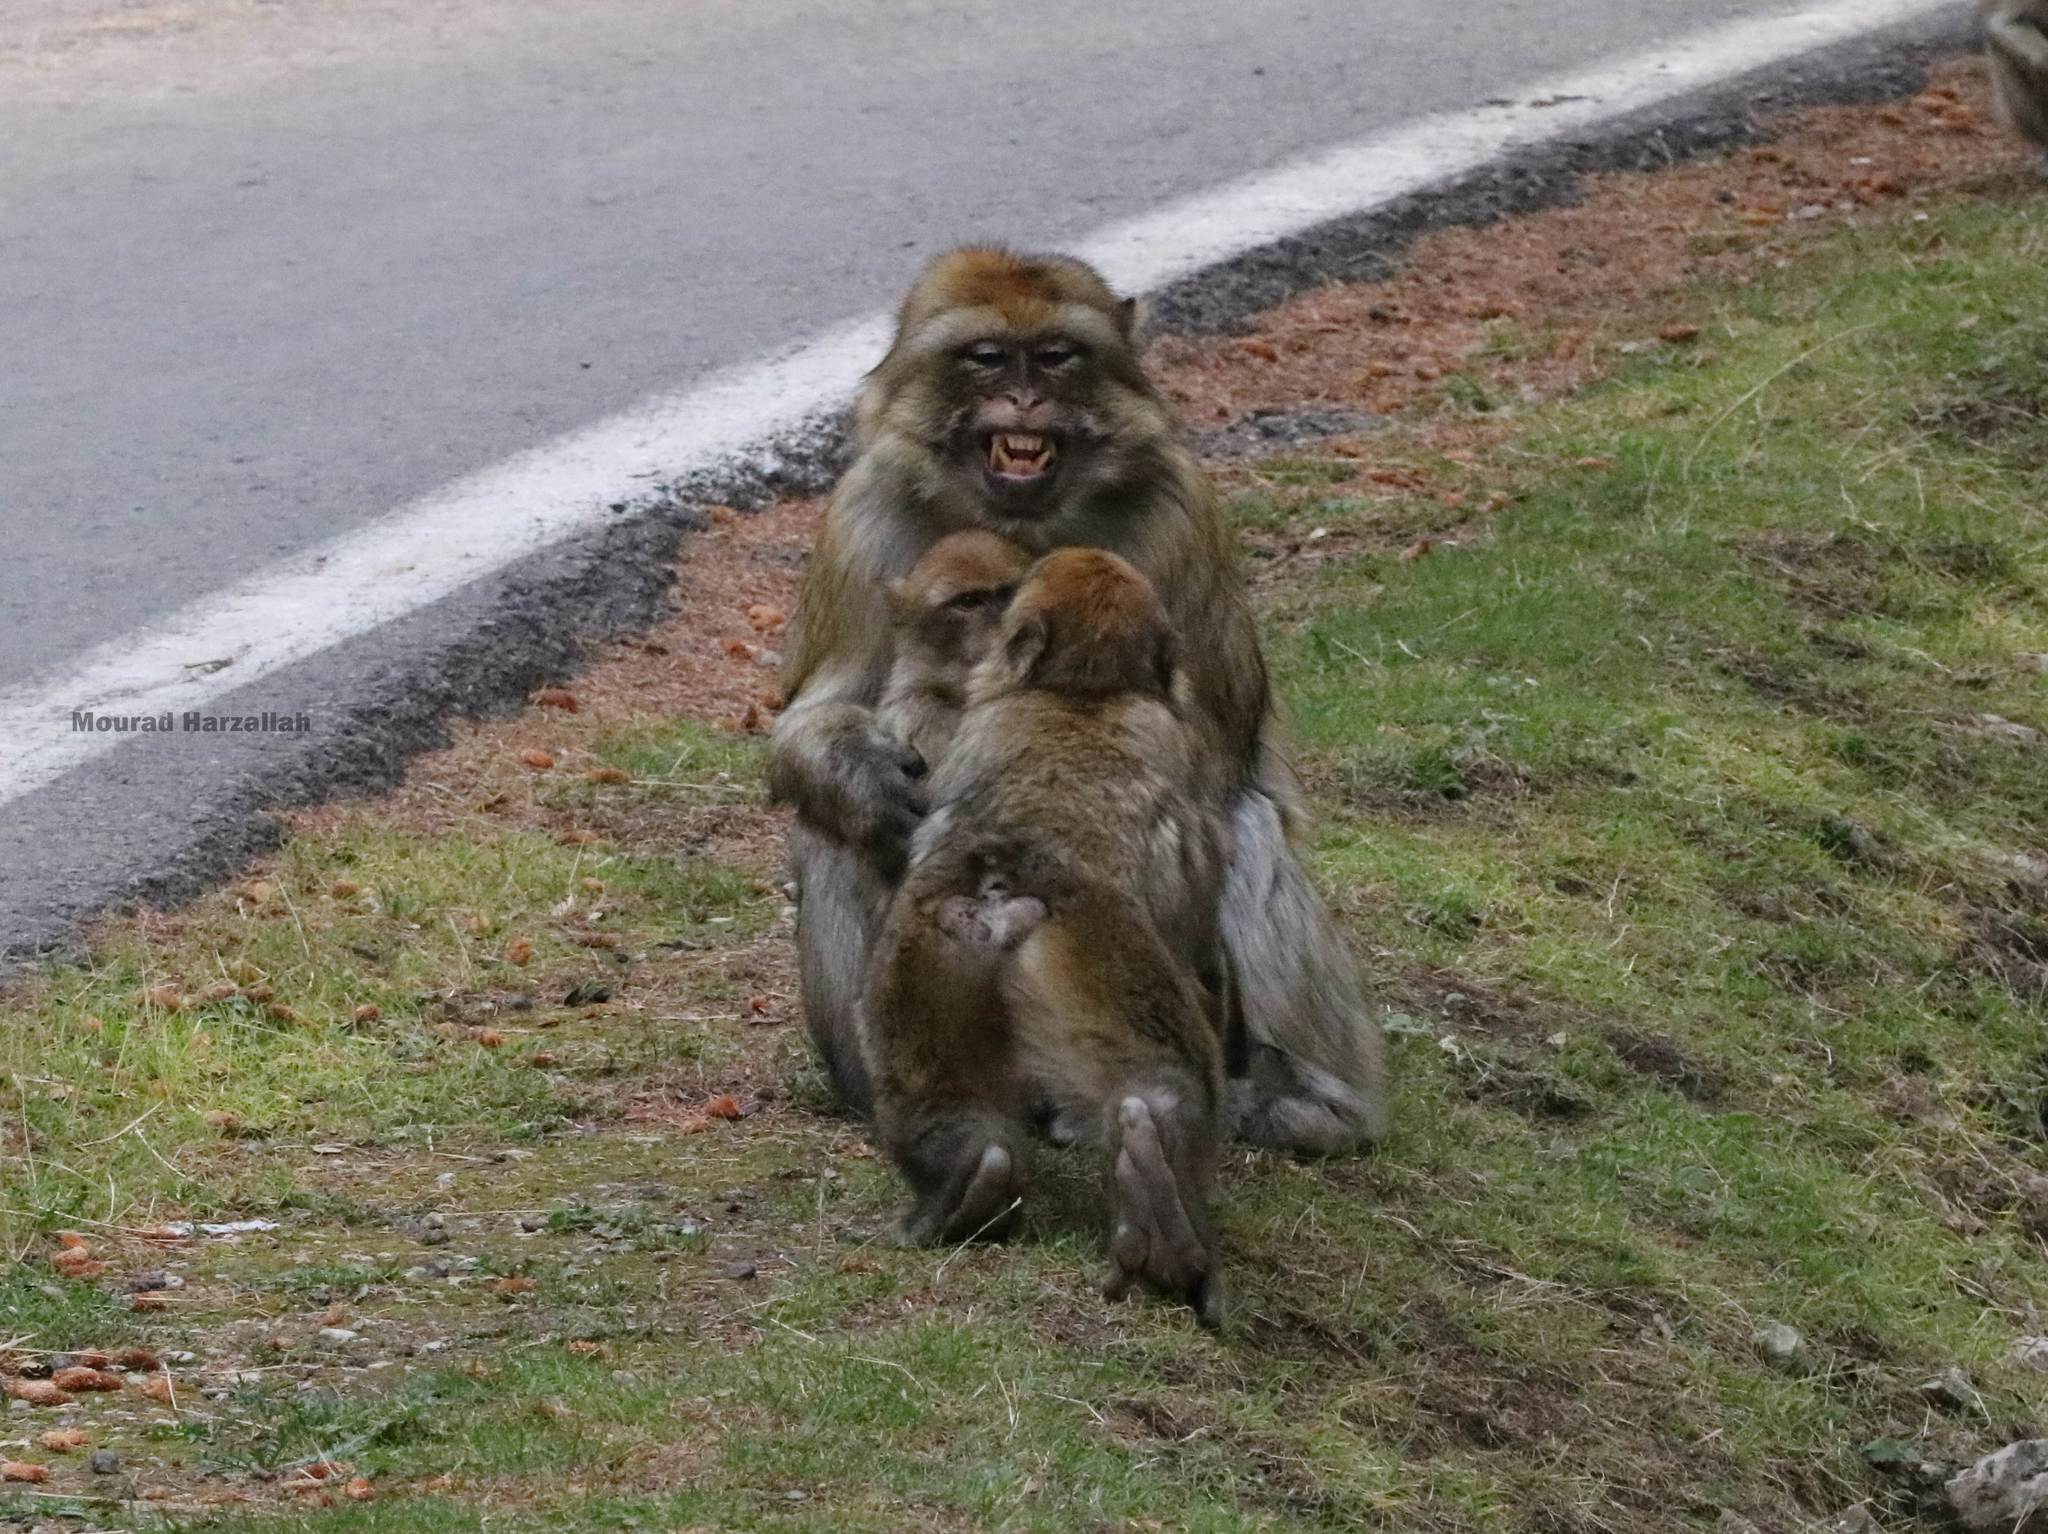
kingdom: Animalia
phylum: Chordata
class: Mammalia
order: Primates
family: Cercopithecidae
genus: Macaca
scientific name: Macaca sylvanus
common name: Barbary macaque
